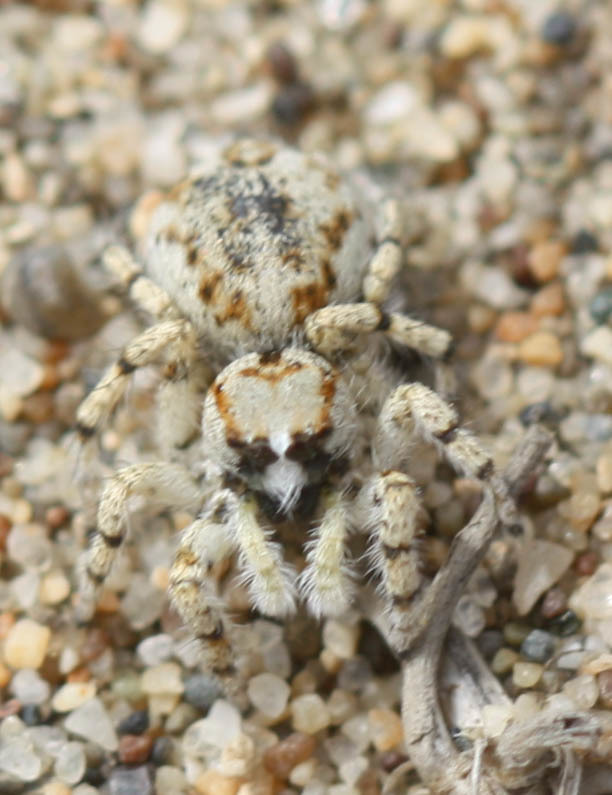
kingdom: Animalia
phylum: Arthropoda
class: Arachnida
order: Araneae
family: Salticidae
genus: Habronattus
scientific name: Habronattus amicus
